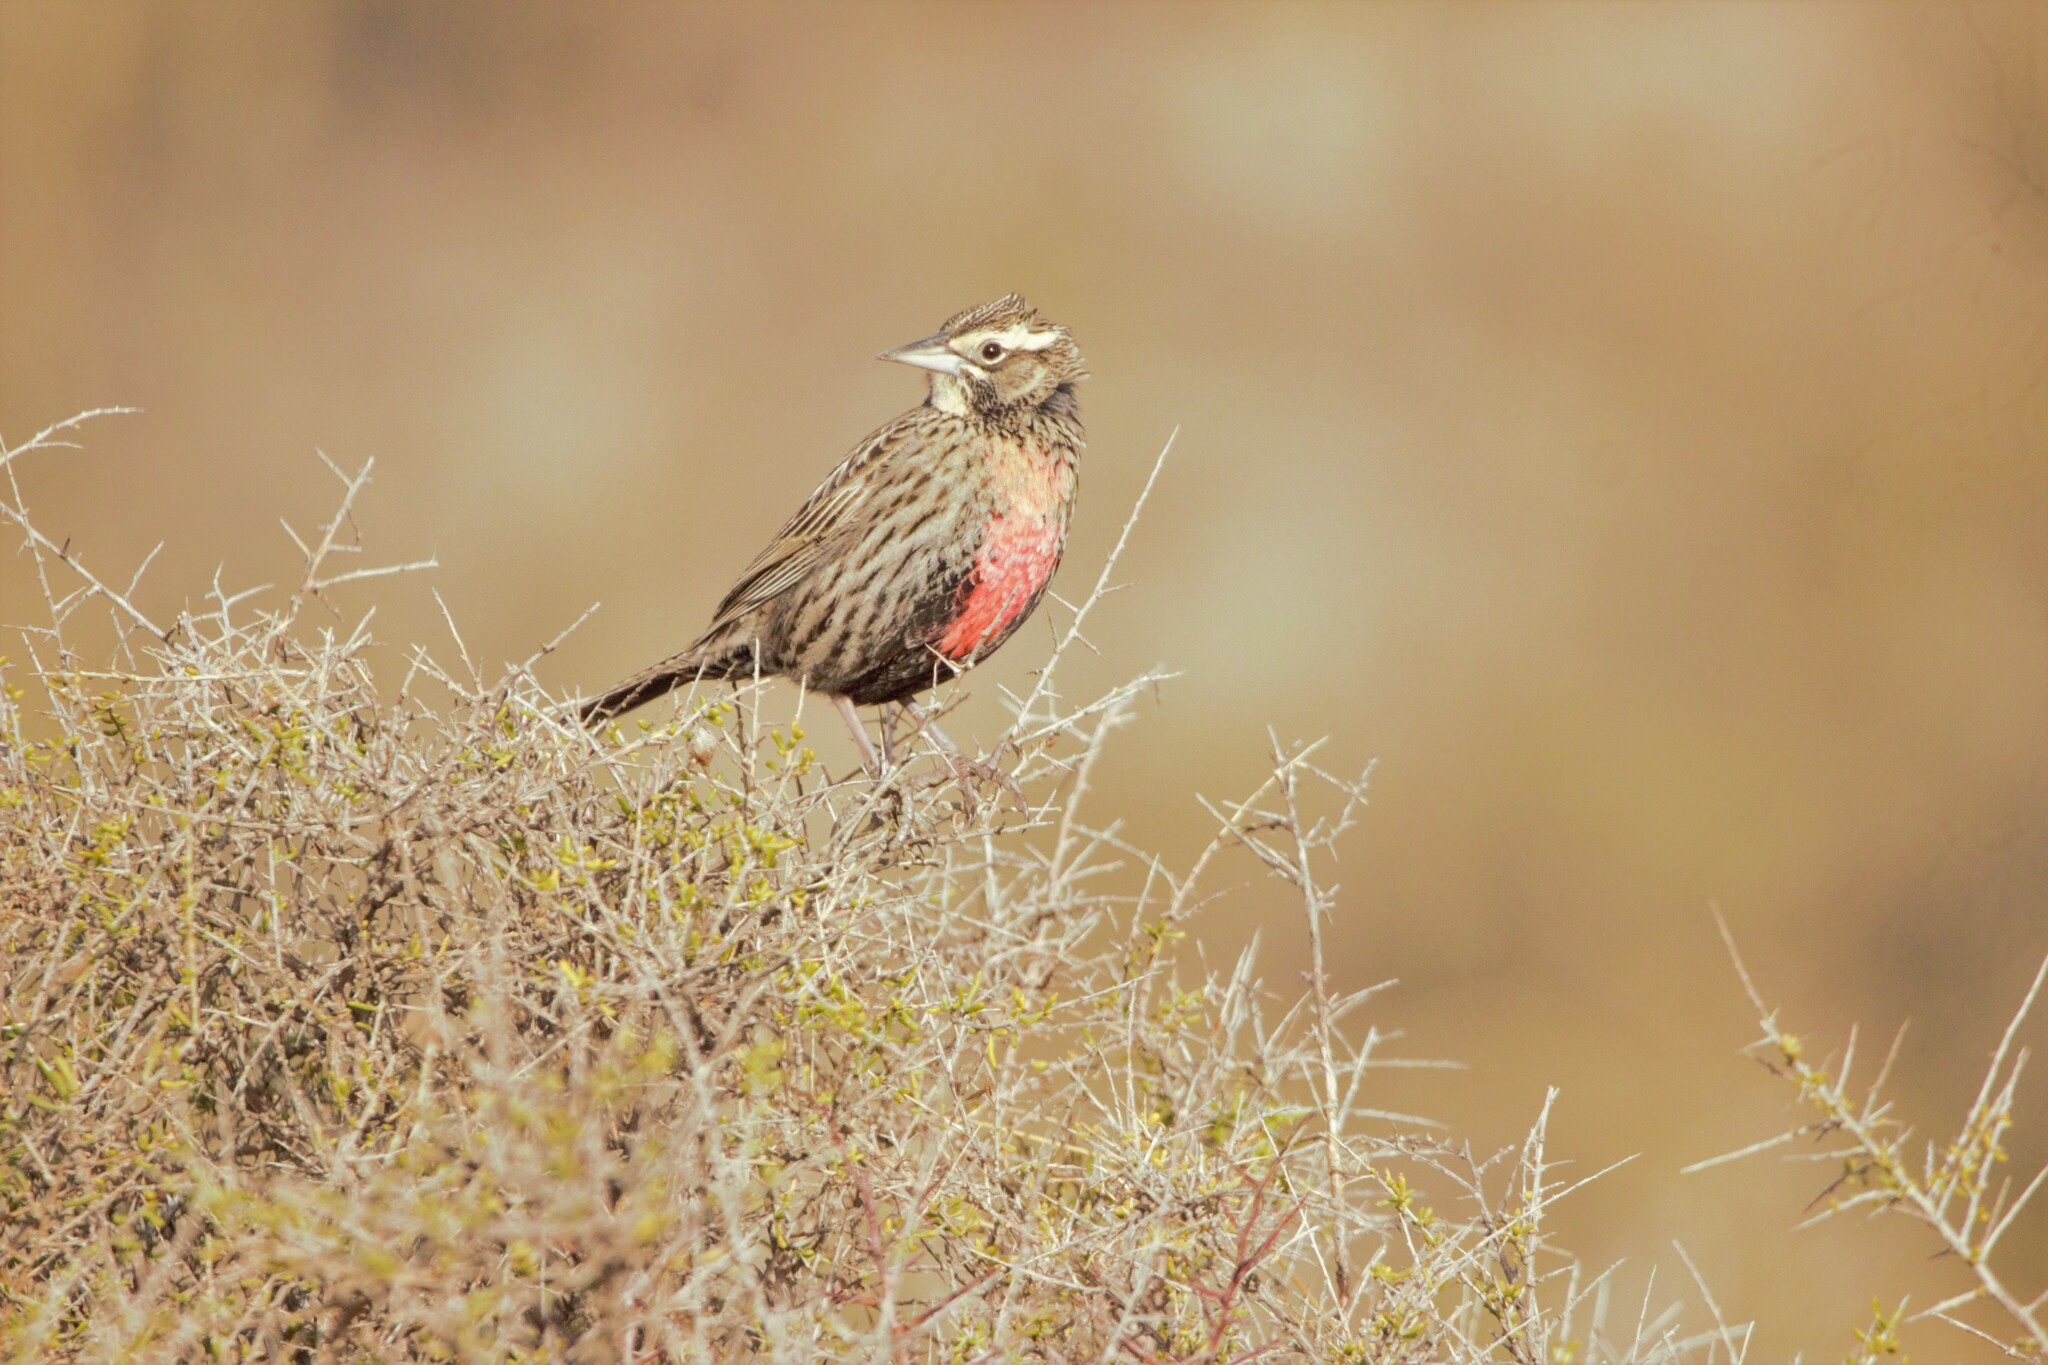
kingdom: Animalia
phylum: Chordata
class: Aves
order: Passeriformes
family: Icteridae
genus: Sturnella
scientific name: Sturnella loyca
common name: Long-tailed meadowlark
